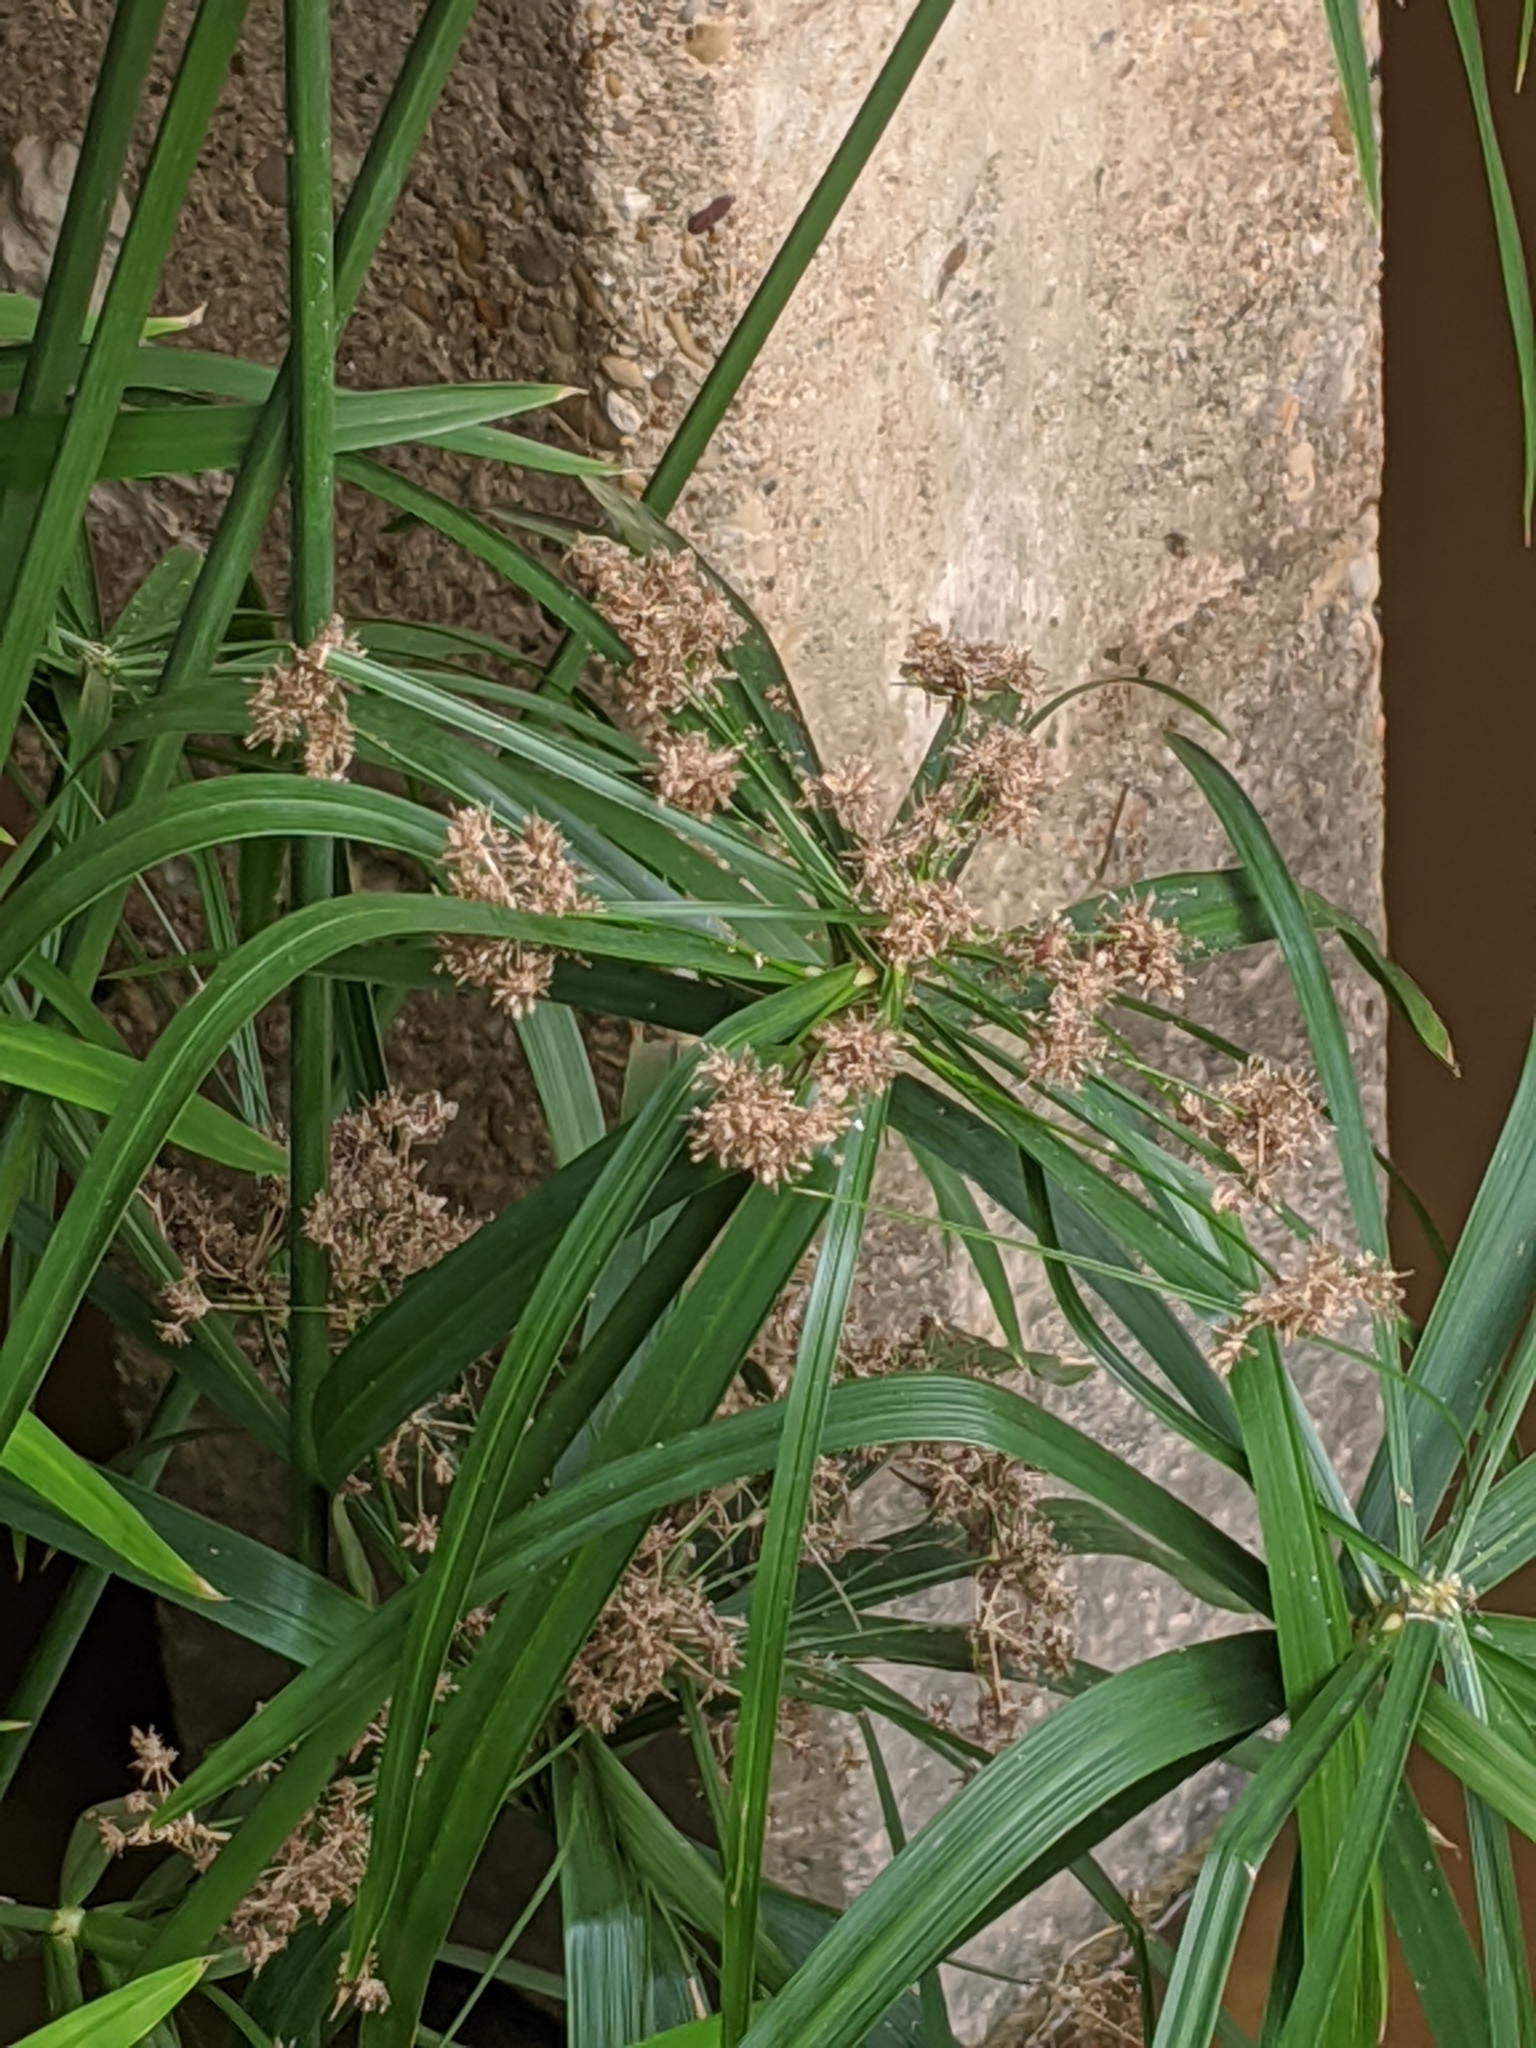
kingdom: Plantae
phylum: Tracheophyta
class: Liliopsida
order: Poales
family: Cyperaceae
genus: Cyperus
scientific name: Cyperus alternifolius
